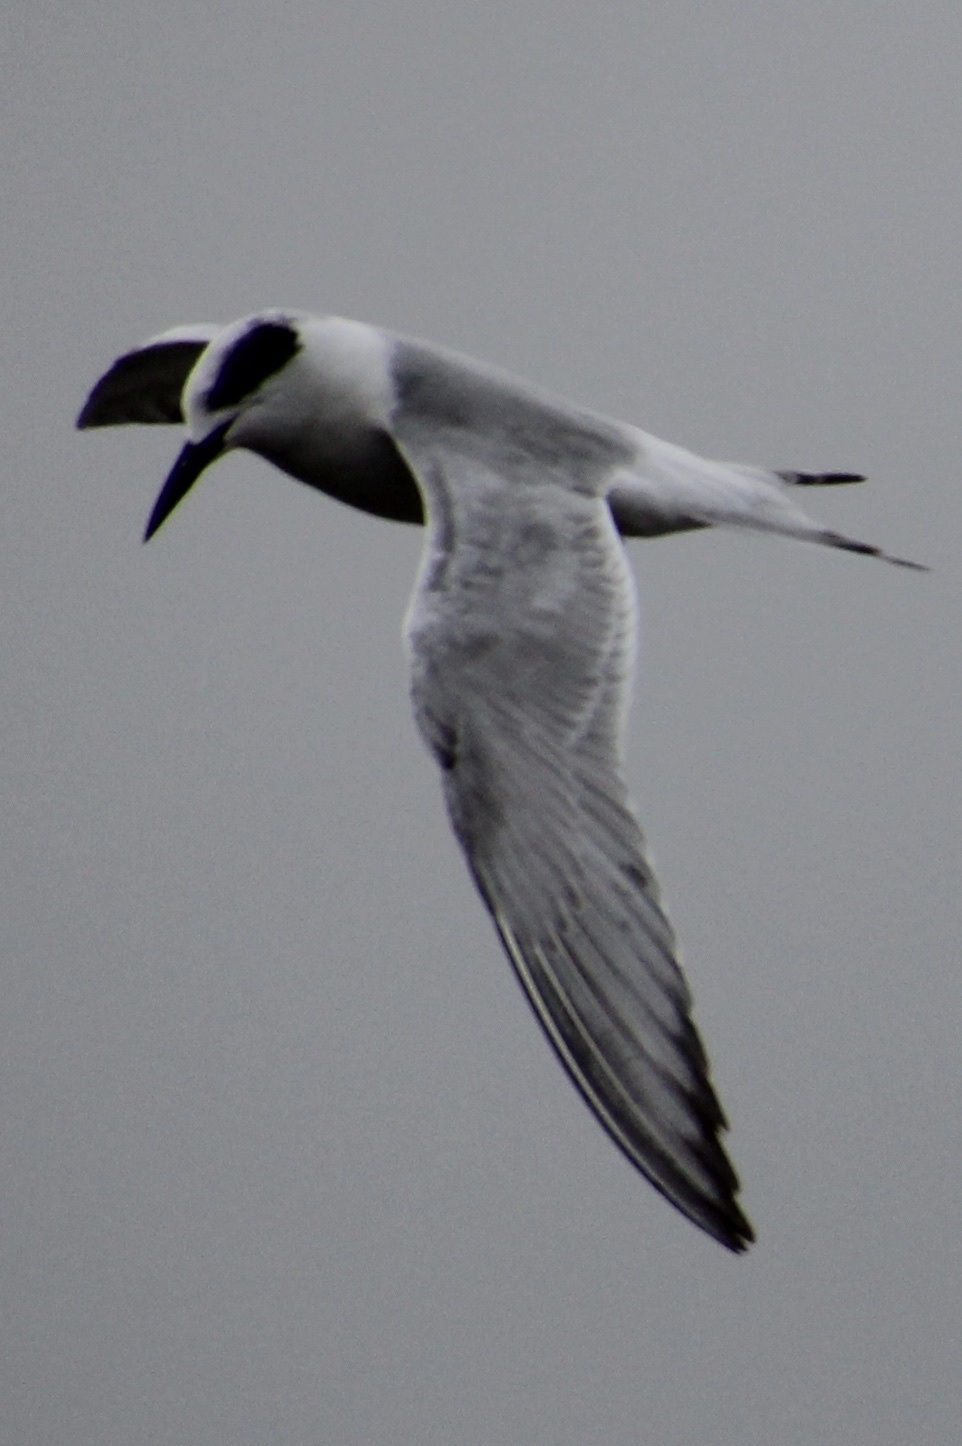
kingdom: Animalia
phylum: Chordata
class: Aves
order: Charadriiformes
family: Laridae
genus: Sterna
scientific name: Sterna forsteri
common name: Forster's tern
